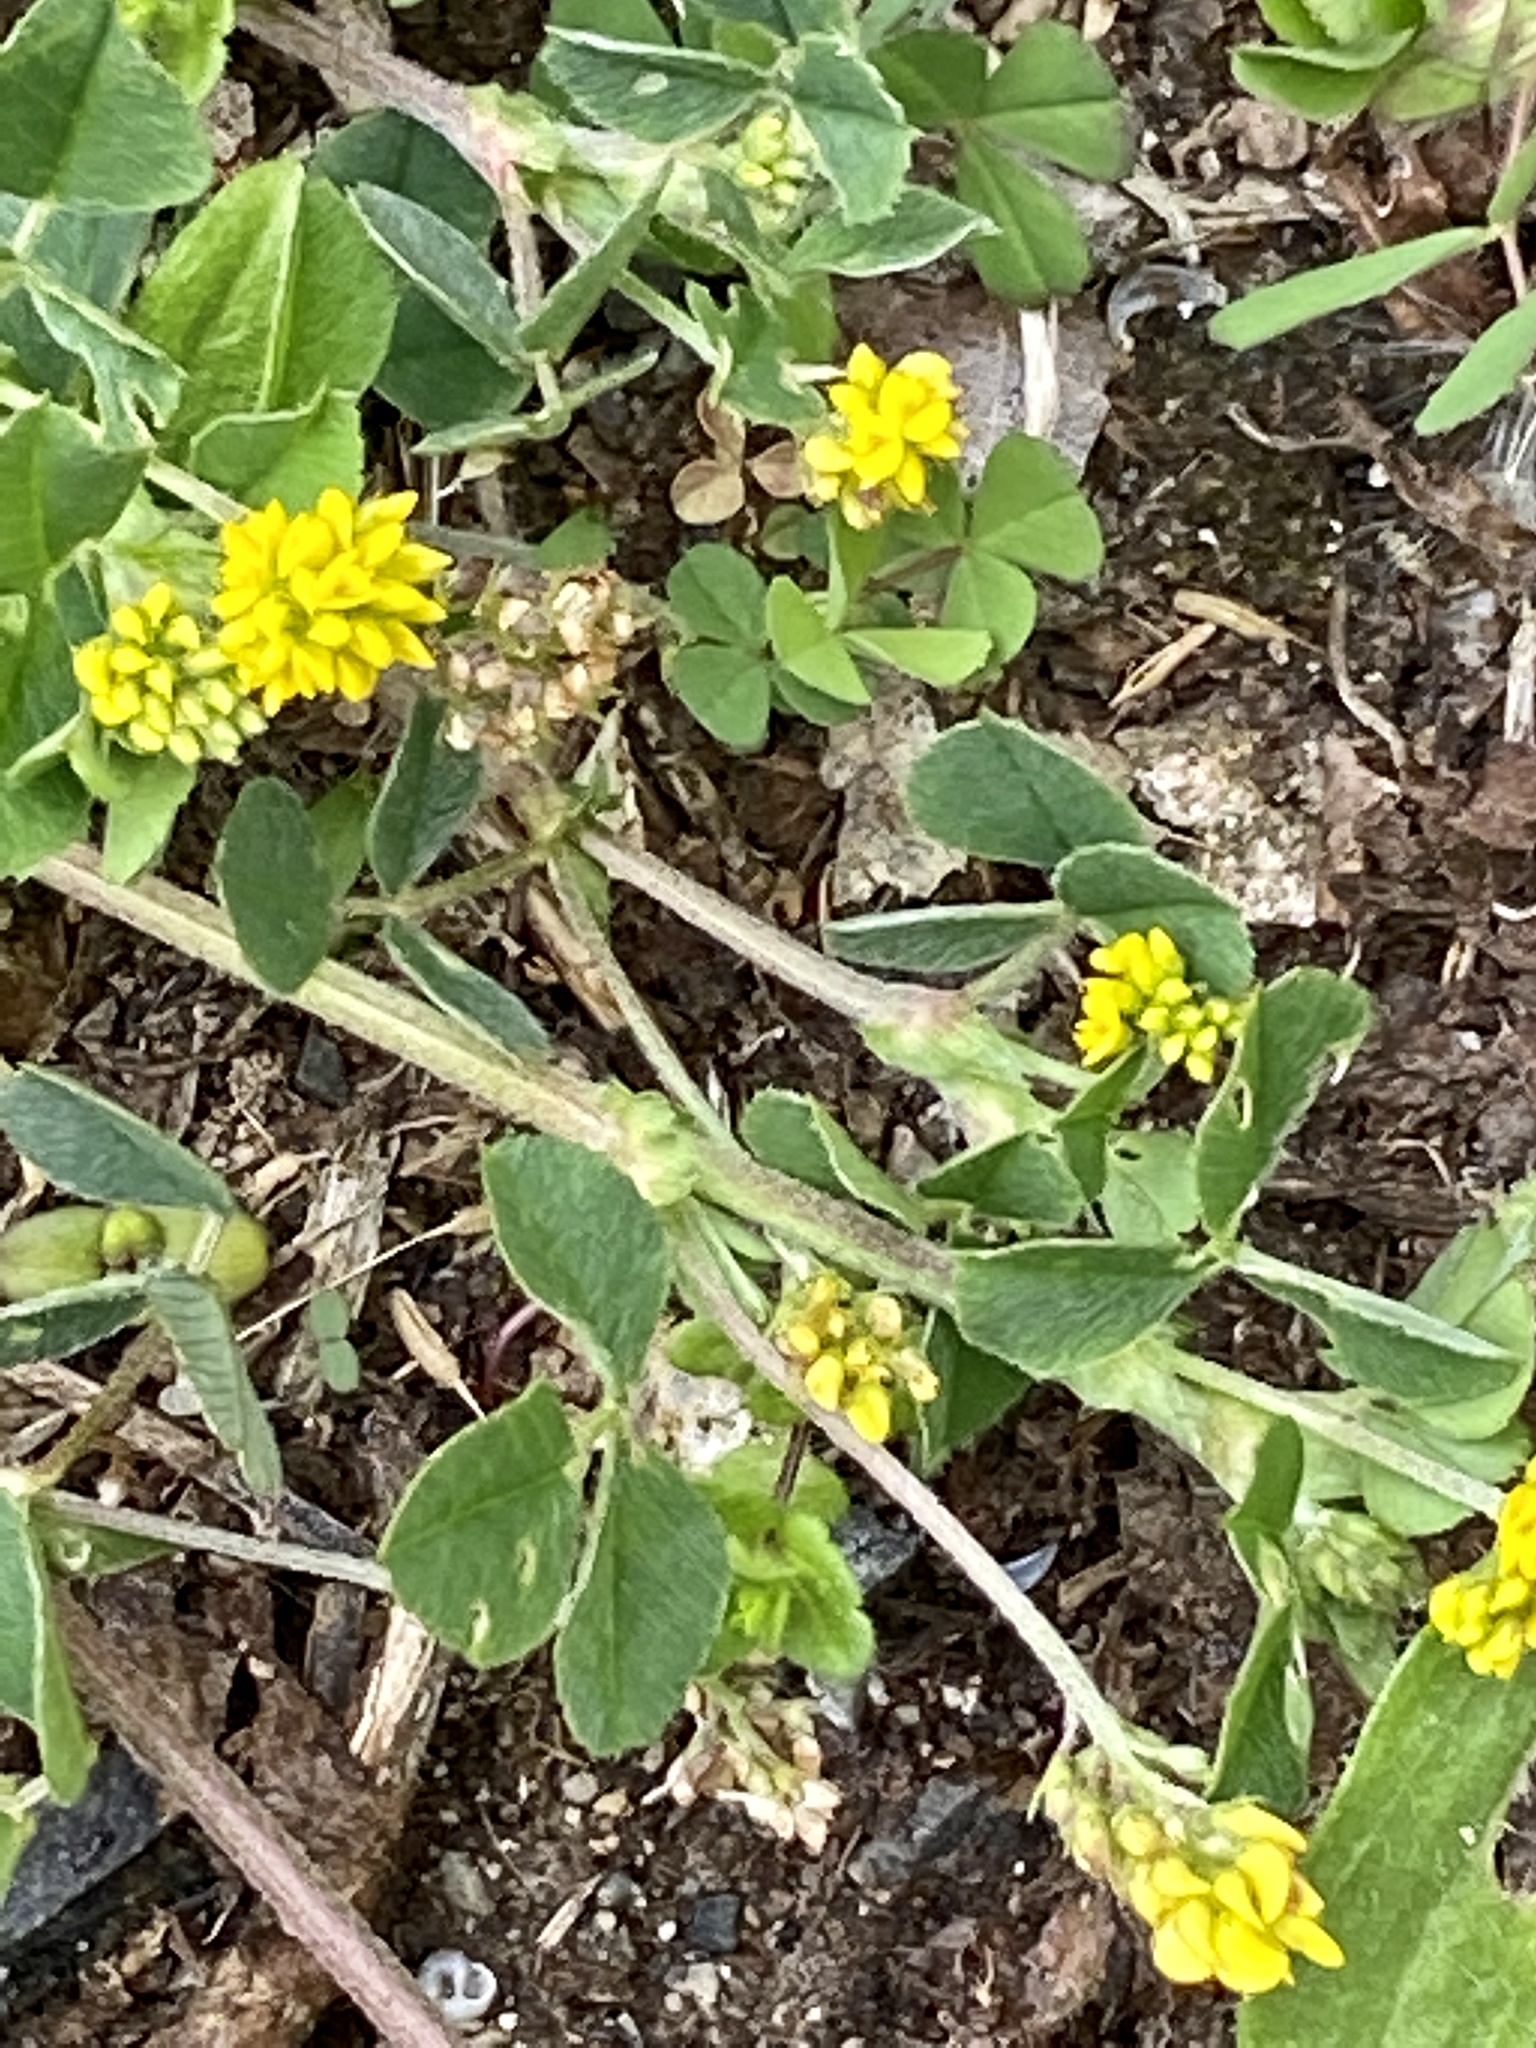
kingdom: Plantae
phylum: Tracheophyta
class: Magnoliopsida
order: Fabales
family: Fabaceae
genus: Medicago
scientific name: Medicago lupulina
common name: Black medick
